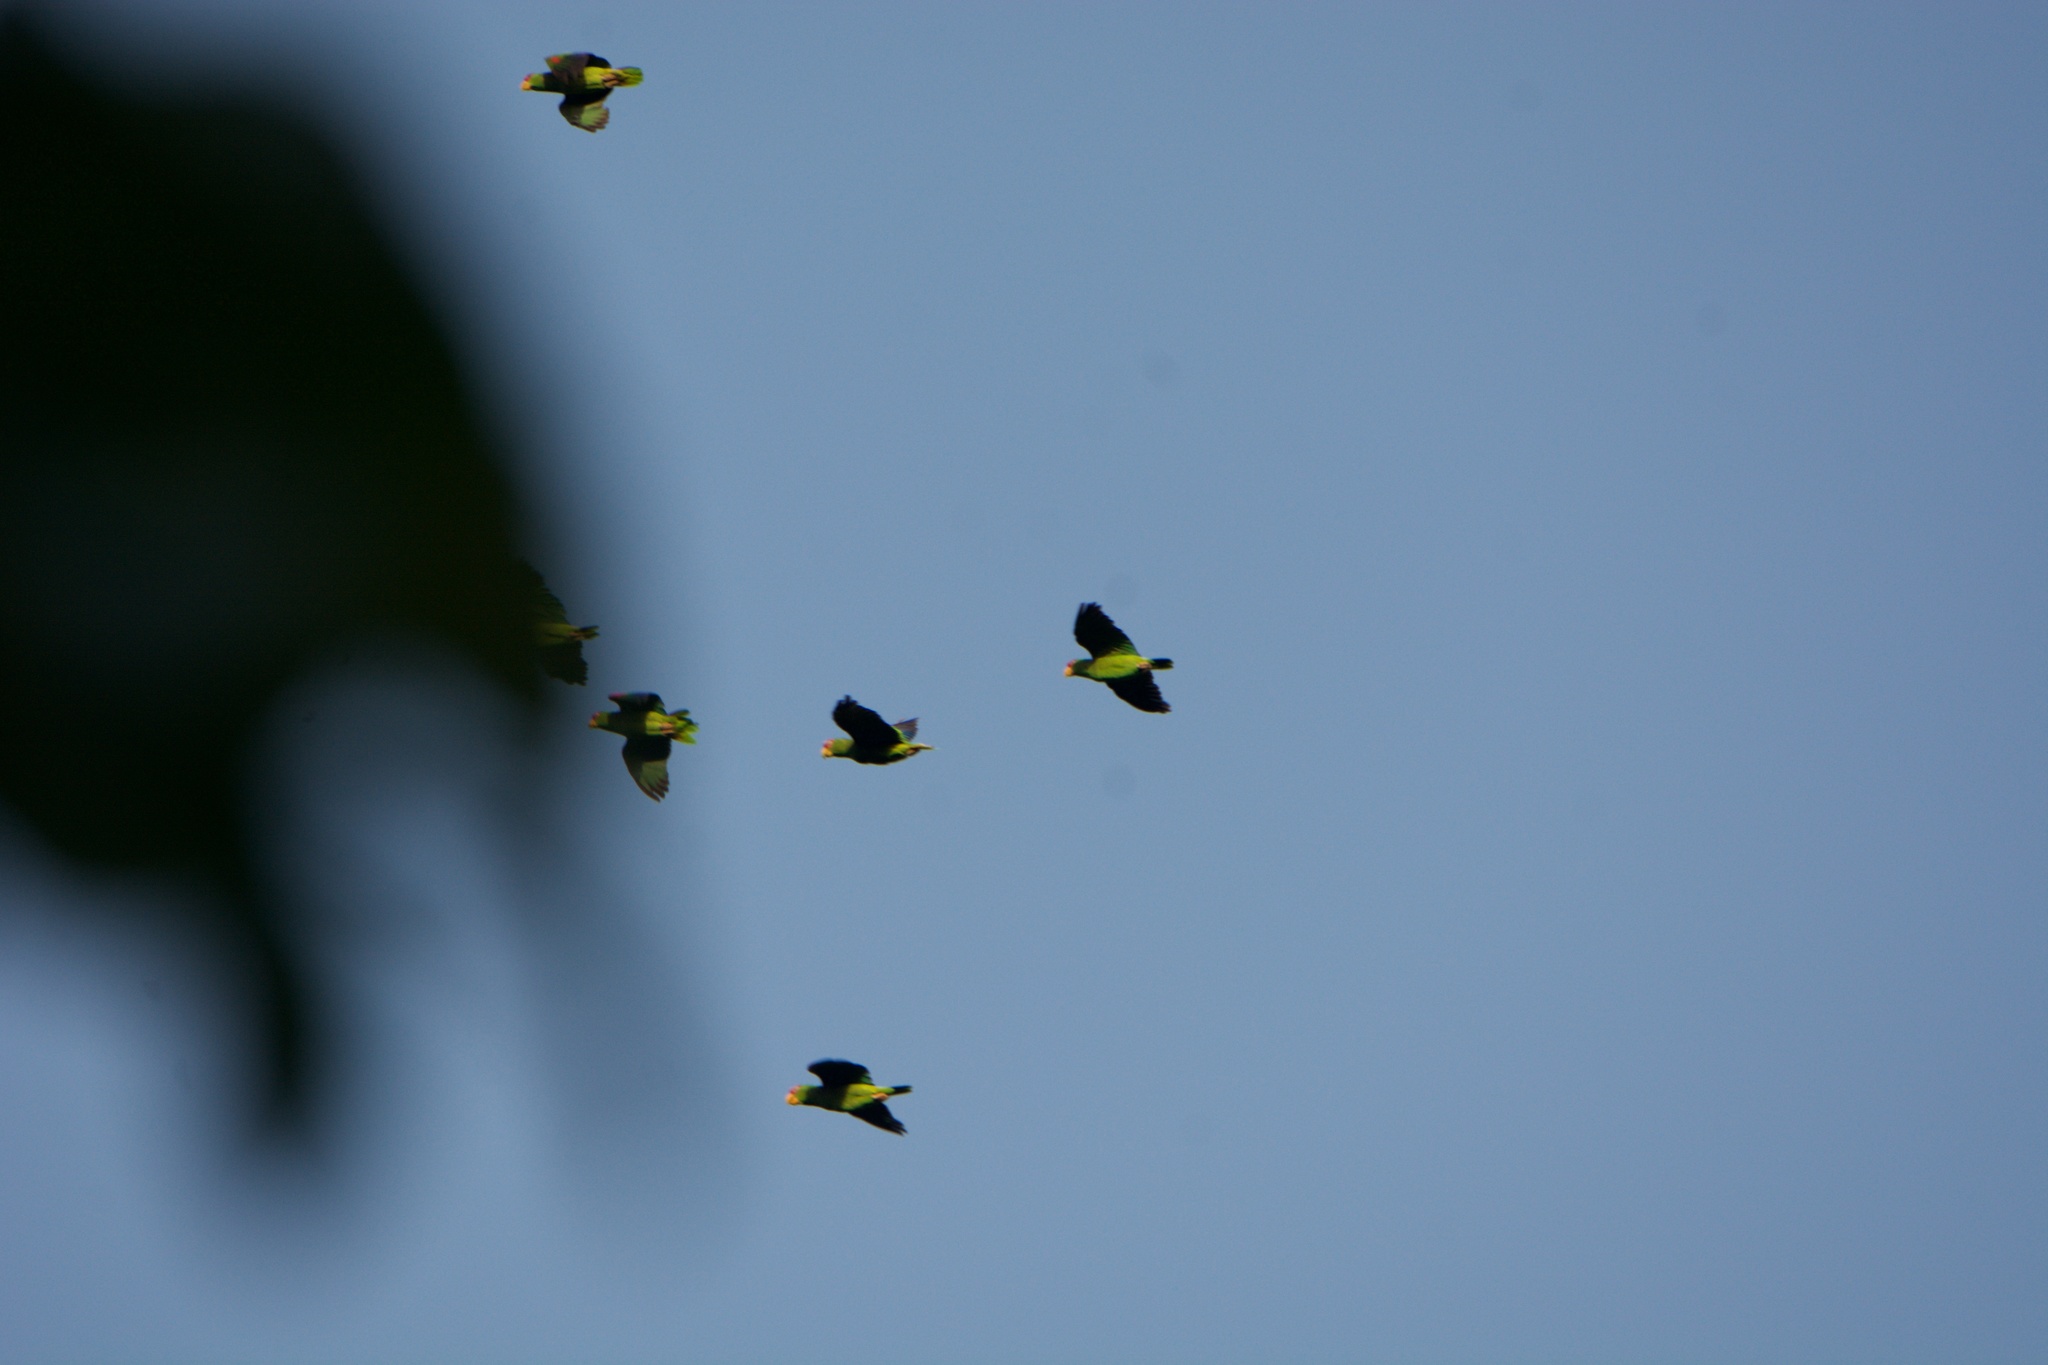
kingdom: Animalia
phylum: Chordata
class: Aves
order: Psittaciformes
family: Psittacidae
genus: Amazona
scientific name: Amazona albifrons
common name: White-fronted amazon
